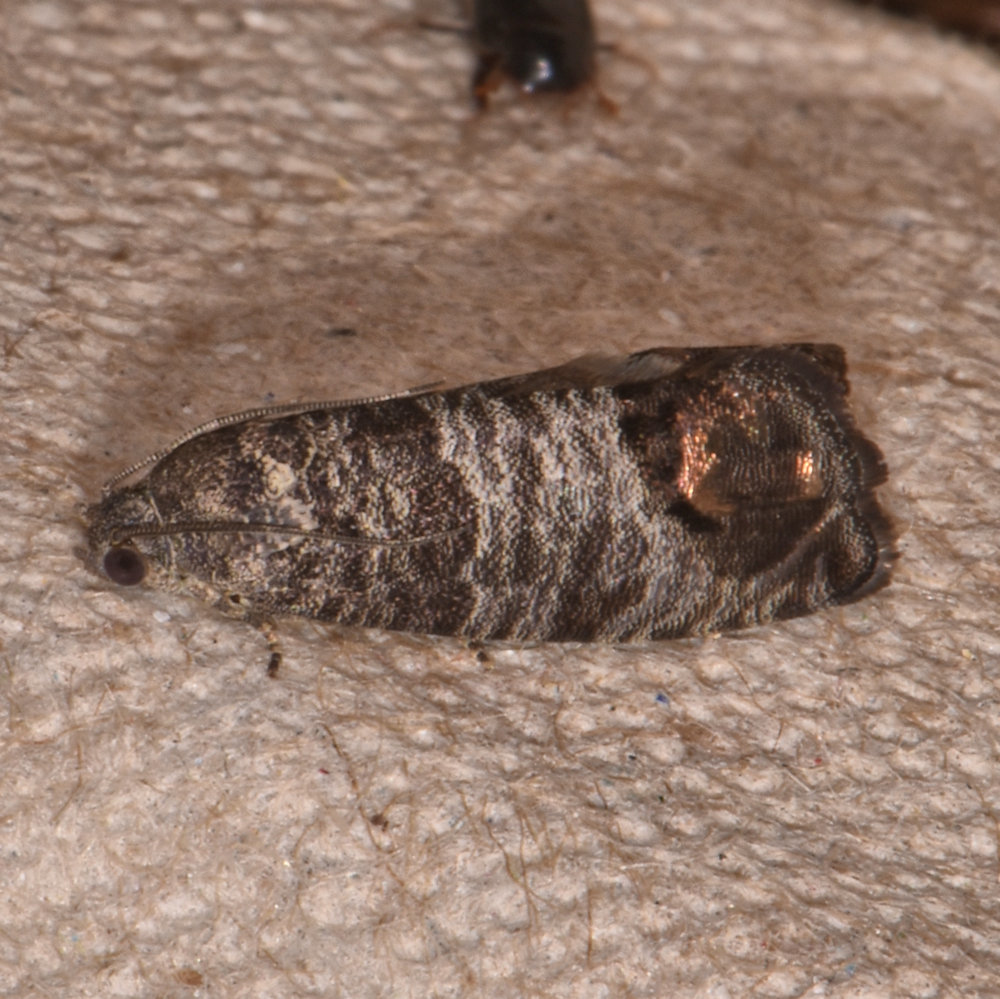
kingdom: Animalia
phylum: Arthropoda
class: Insecta
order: Lepidoptera
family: Tortricidae
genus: Cydia
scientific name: Cydia pomonella
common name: Codling moth
